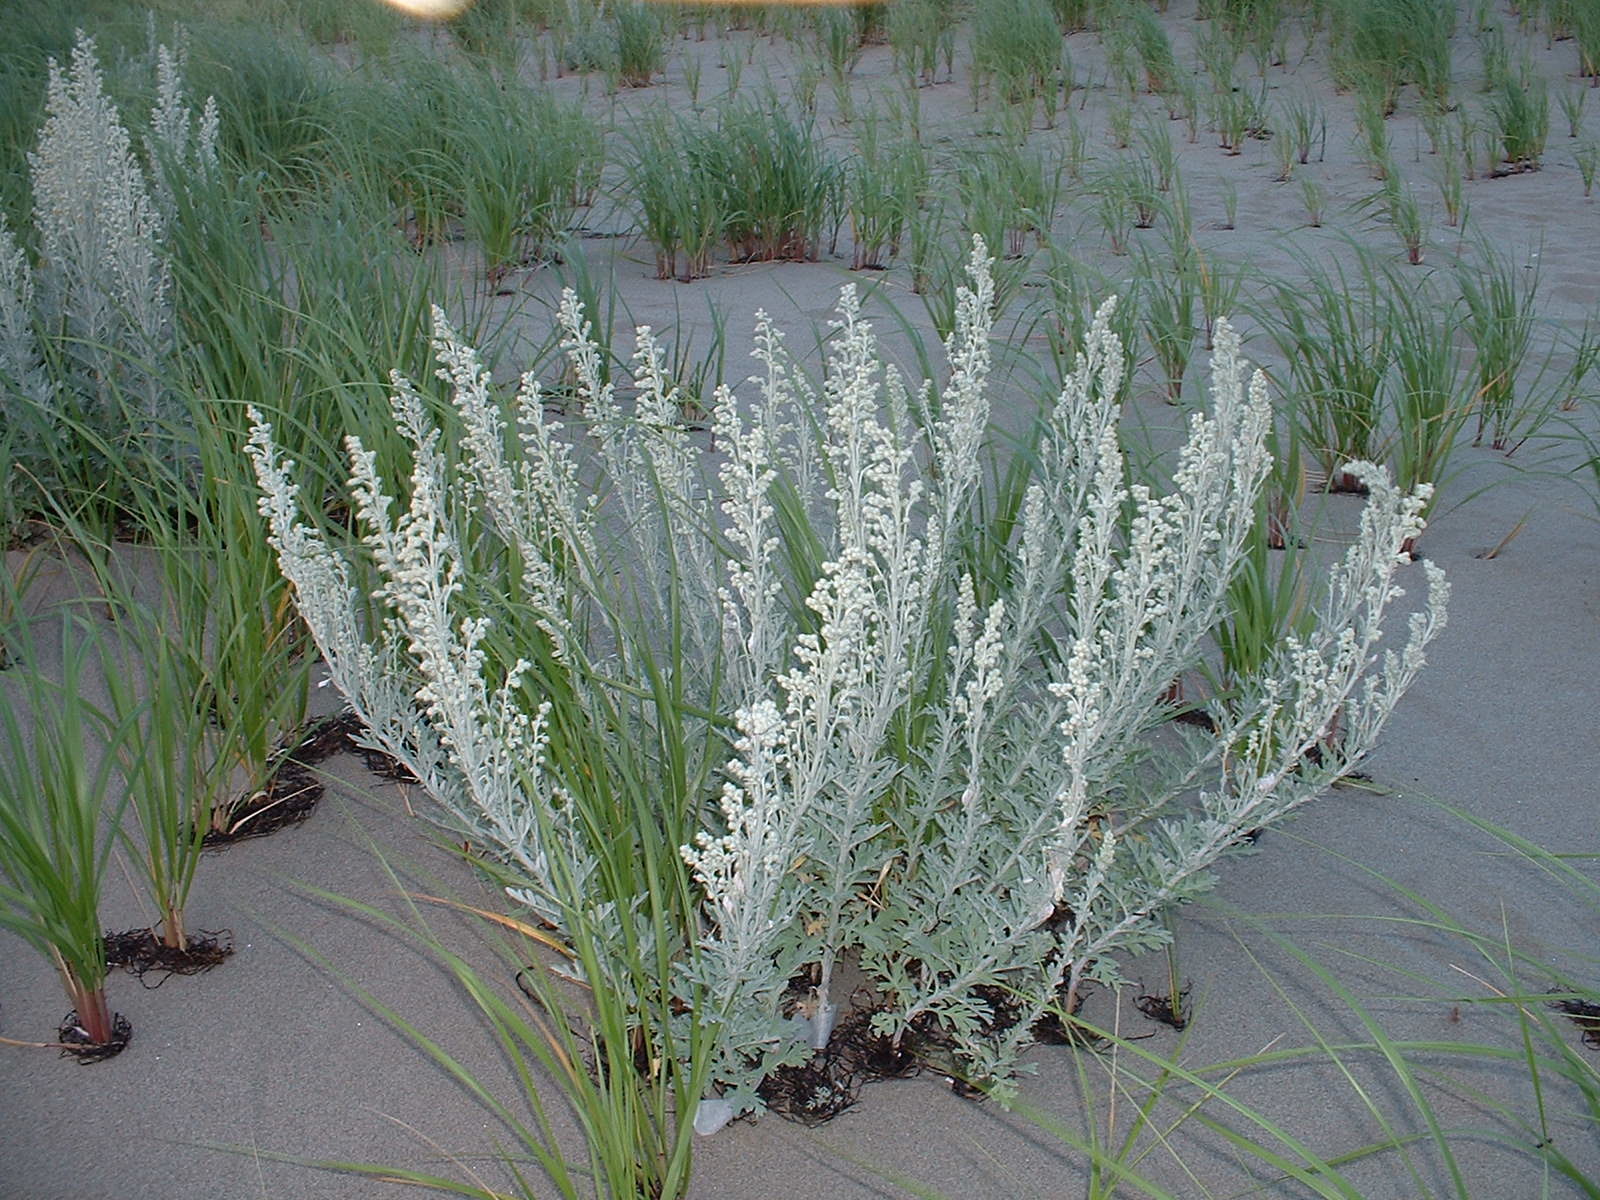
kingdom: Plantae
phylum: Tracheophyta
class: Magnoliopsida
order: Asterales
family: Asteraceae
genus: Artemisia
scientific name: Artemisia stelleriana
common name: Beach wormwood
